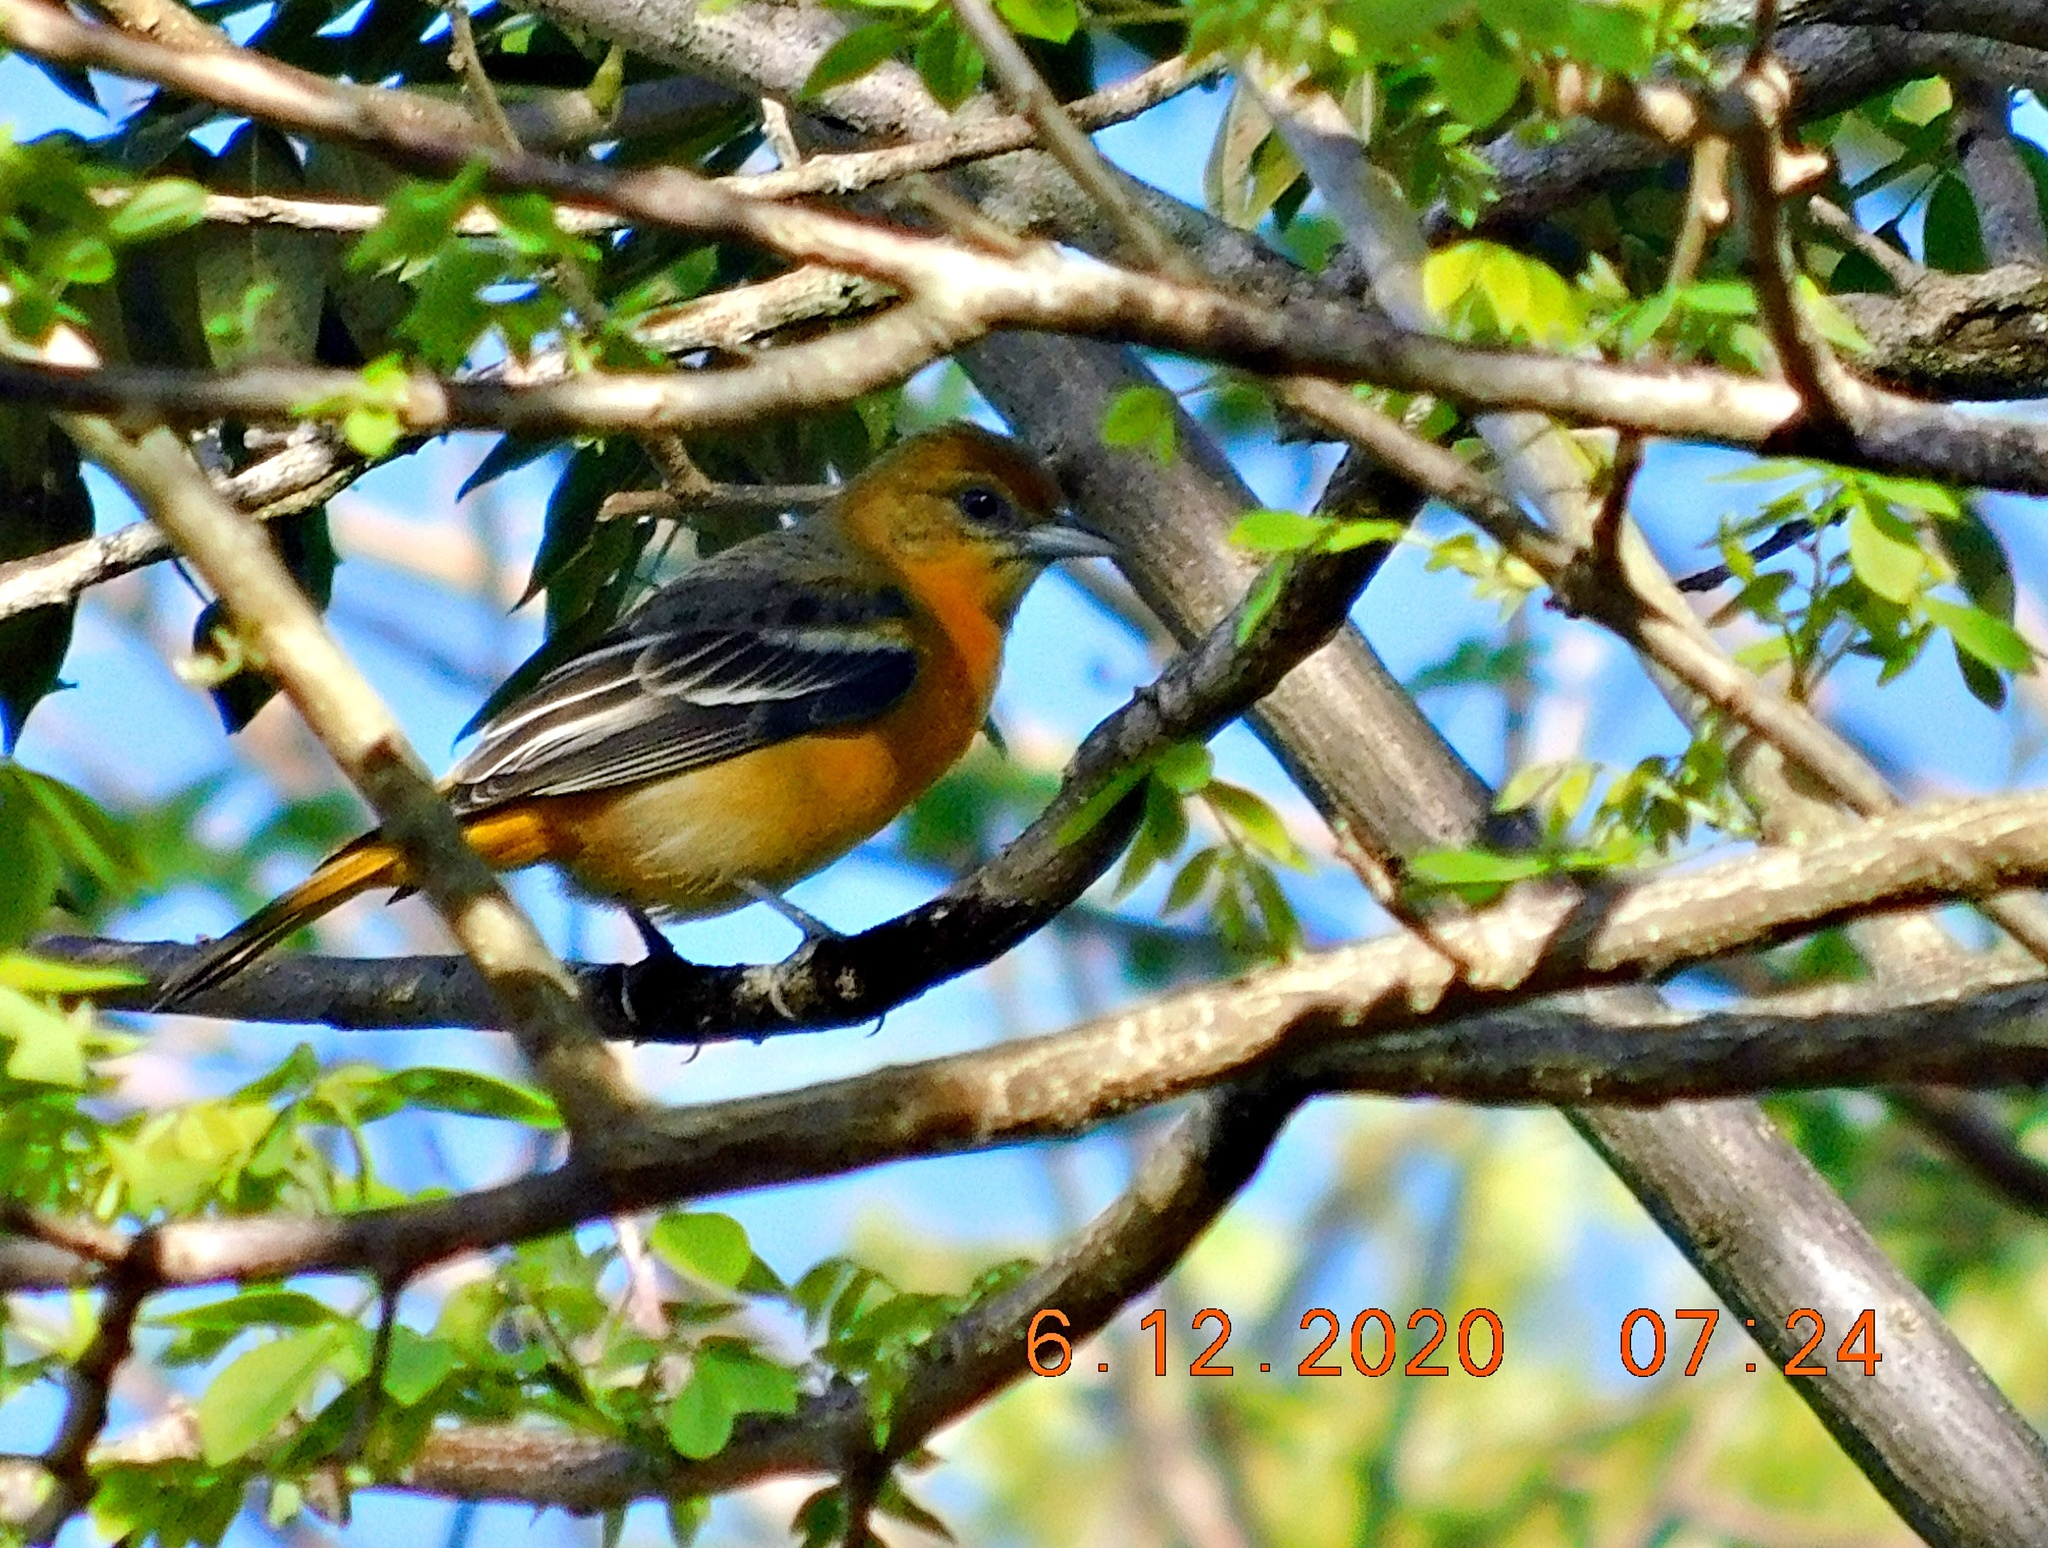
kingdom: Animalia
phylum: Chordata
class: Aves
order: Passeriformes
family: Icteridae
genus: Icterus
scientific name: Icterus galbula
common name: Baltimore oriole
